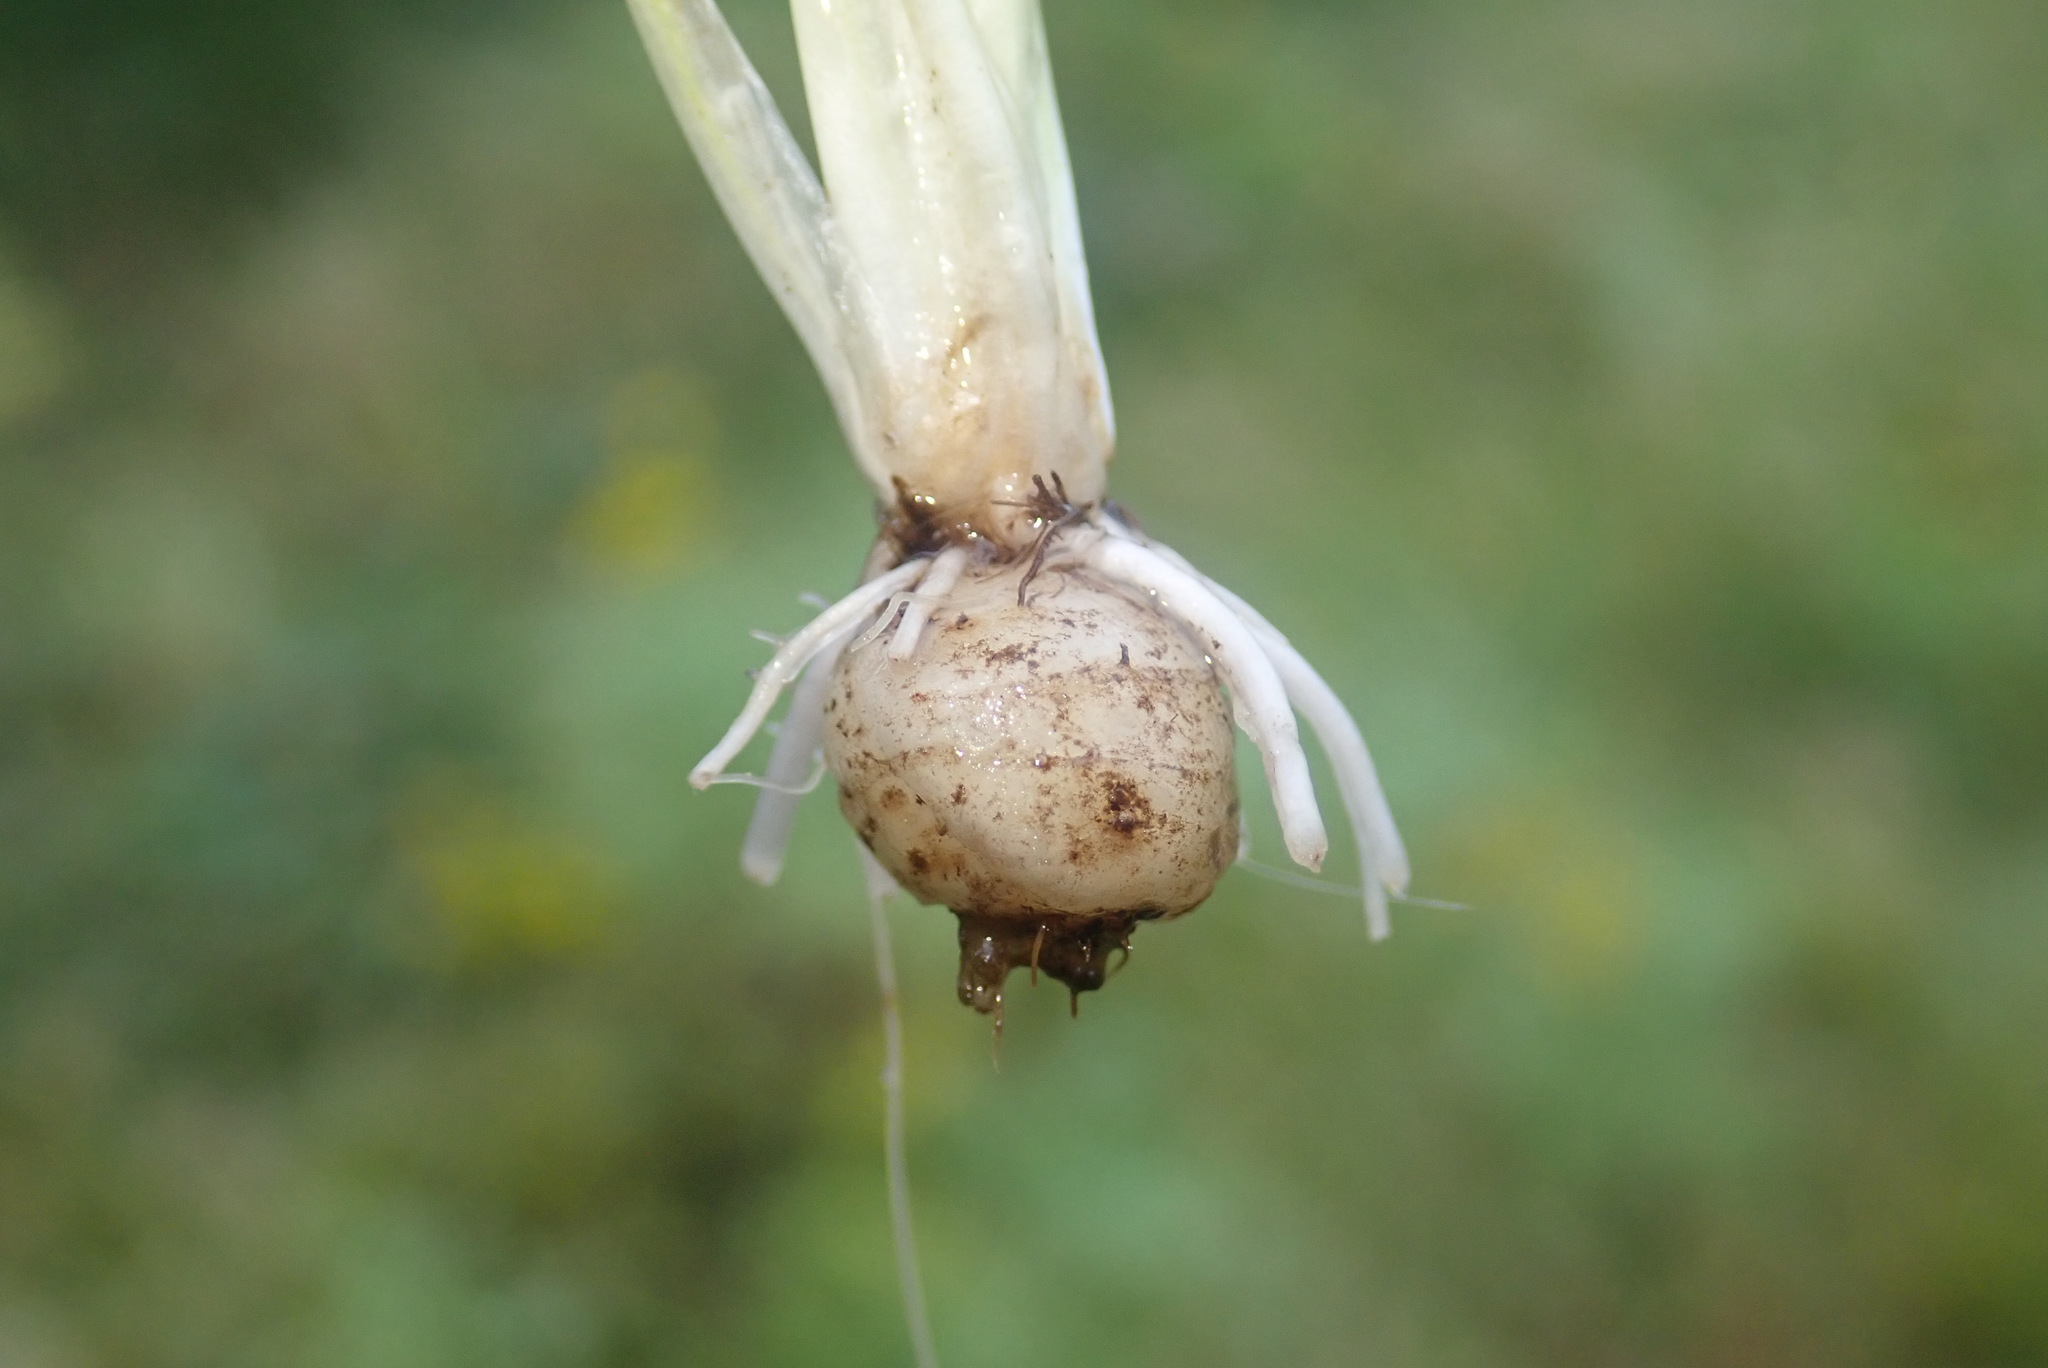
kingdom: Plantae
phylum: Tracheophyta
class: Magnoliopsida
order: Ranunculales
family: Ranunculaceae
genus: Ranunculus
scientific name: Ranunculus bulbosus
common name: Bulbous buttercup
